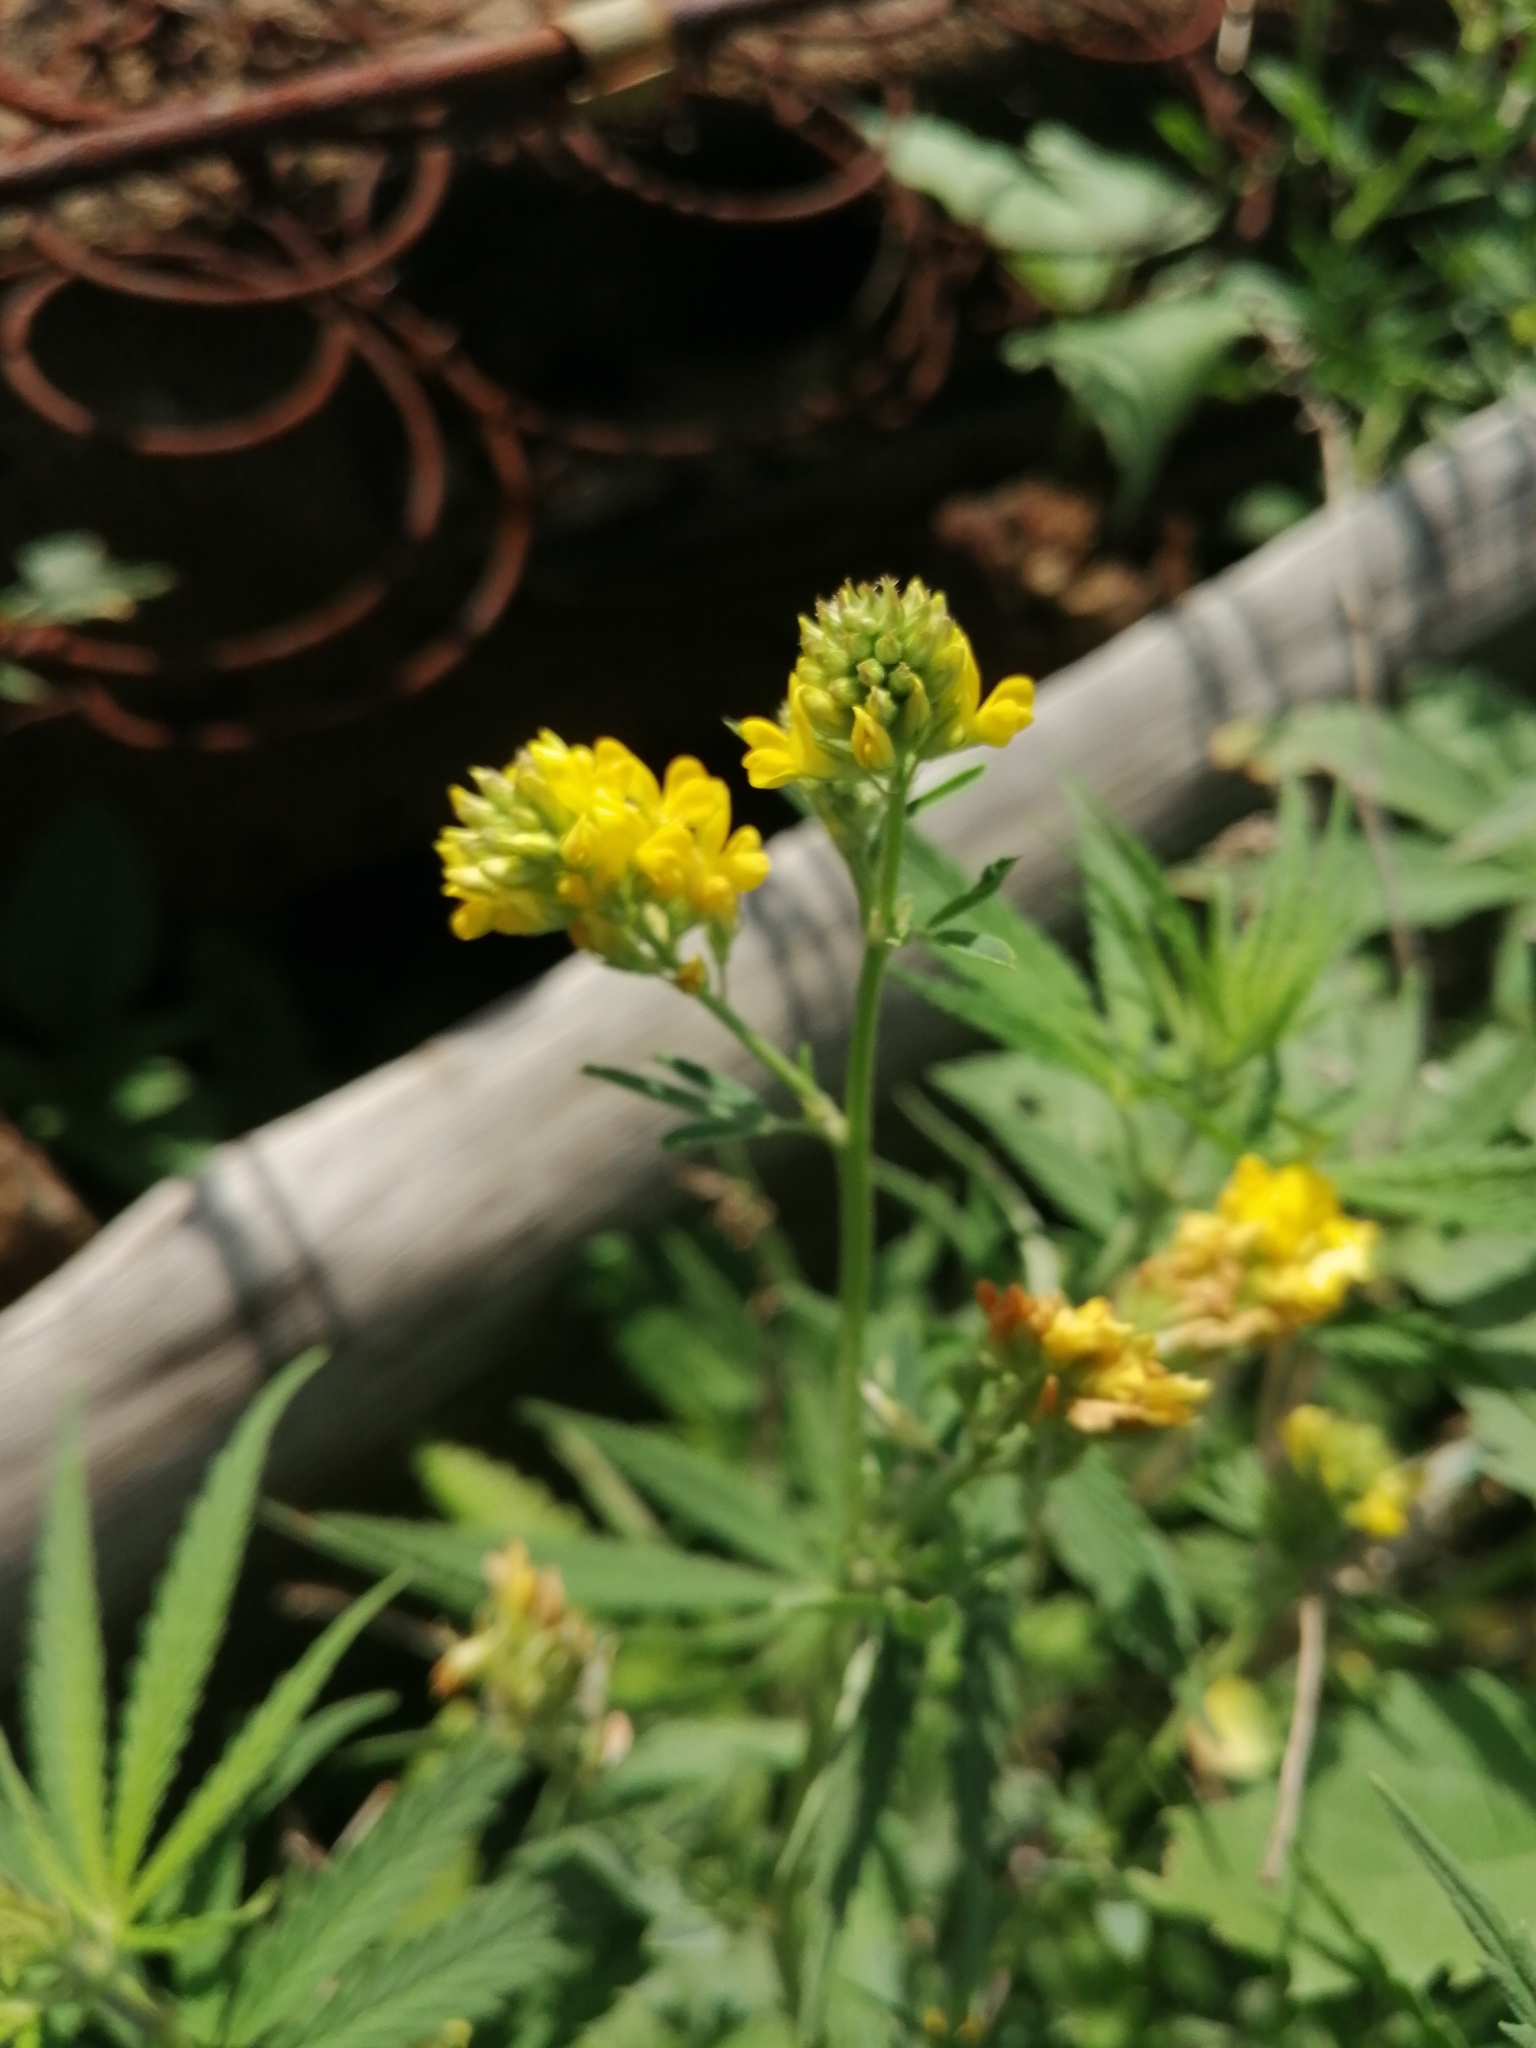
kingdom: Plantae
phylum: Tracheophyta
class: Magnoliopsida
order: Fabales
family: Fabaceae
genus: Medicago
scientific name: Medicago falcata
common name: Sickle medick
